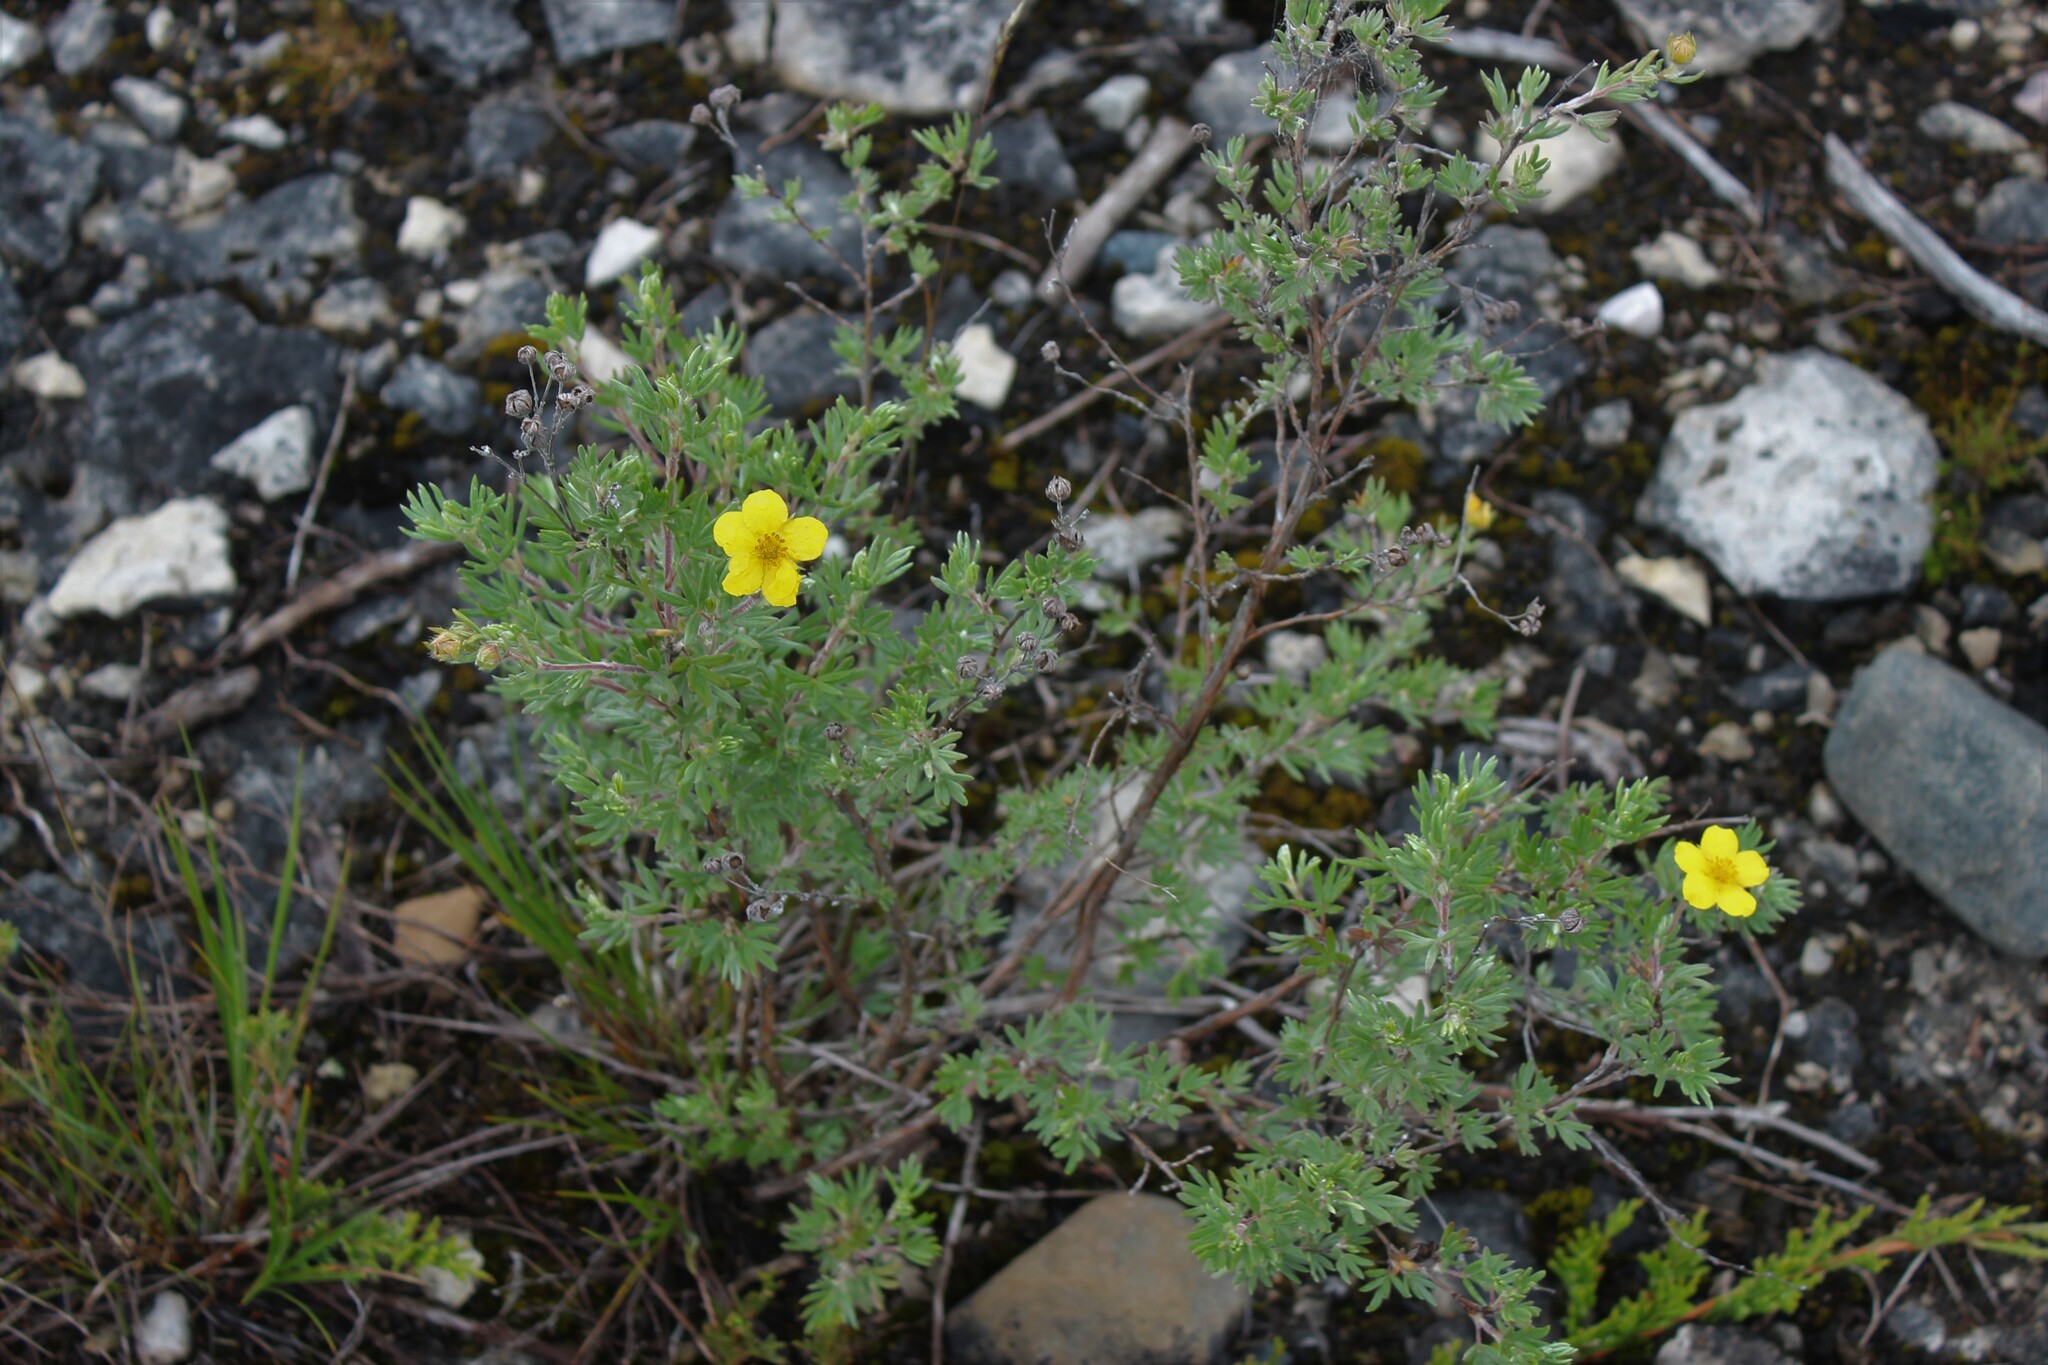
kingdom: Plantae
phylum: Tracheophyta
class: Magnoliopsida
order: Rosales
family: Rosaceae
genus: Dasiphora
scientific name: Dasiphora fruticosa
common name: Shrubby cinquefoil
